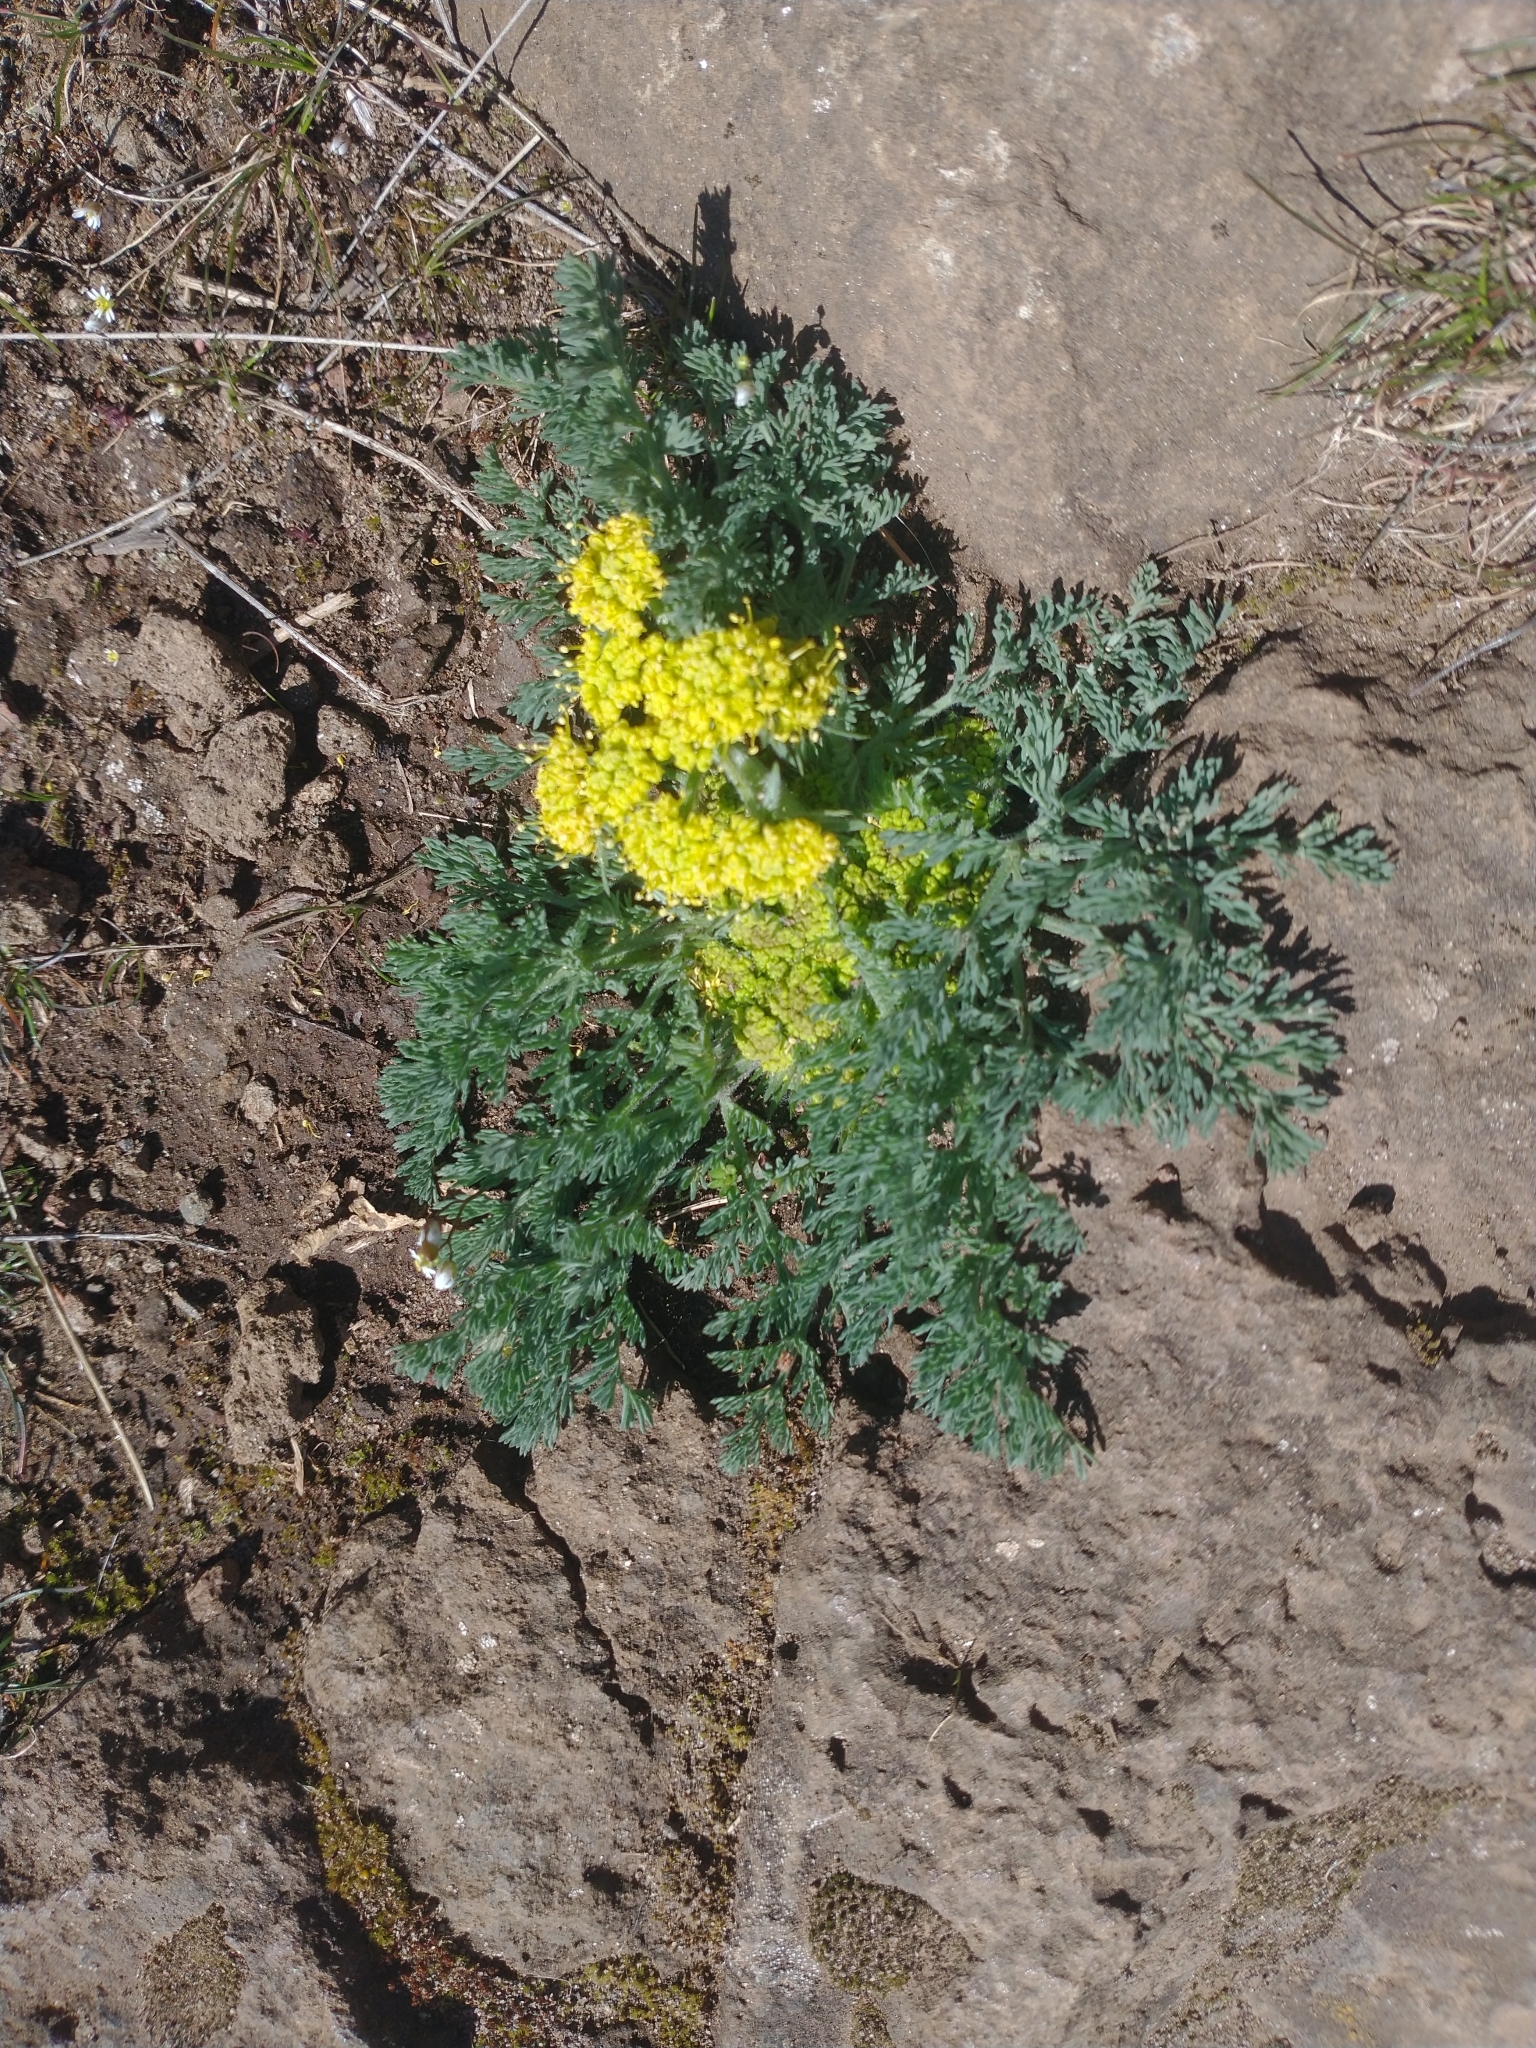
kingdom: Plantae
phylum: Tracheophyta
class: Magnoliopsida
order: Apiales
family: Apiaceae
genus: Lomatium
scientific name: Lomatium macrocarpum
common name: Big-seed biscuitroot
